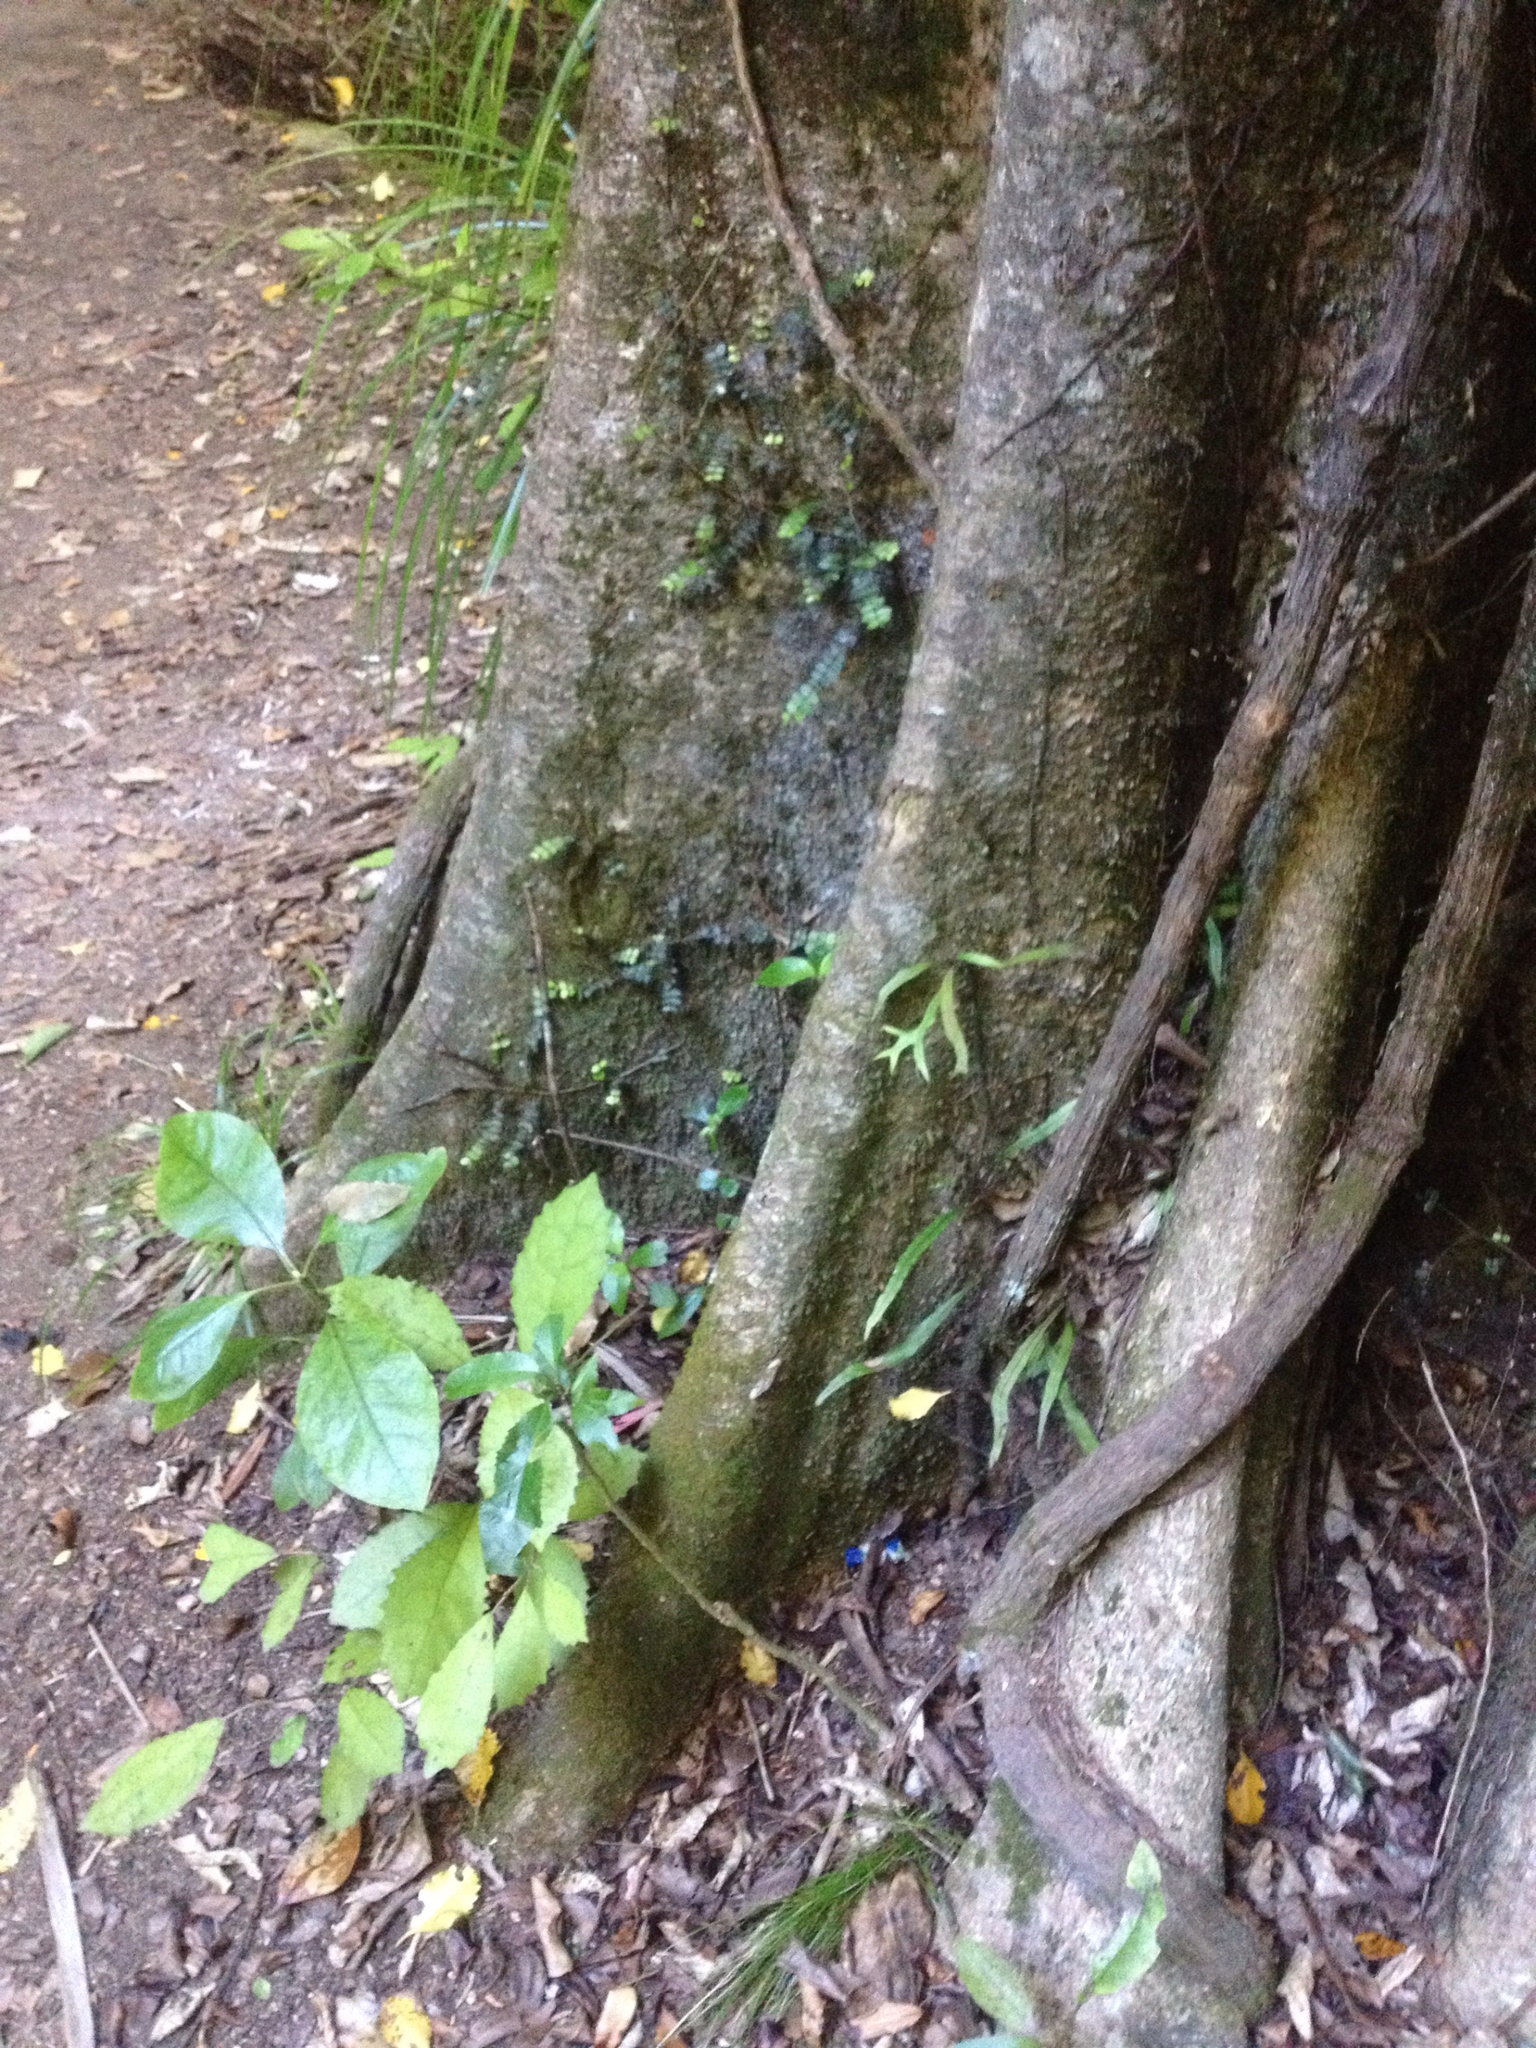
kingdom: Plantae
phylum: Tracheophyta
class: Magnoliopsida
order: Laurales
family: Atherospermataceae
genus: Laurelia
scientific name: Laurelia novae-zelandiae
